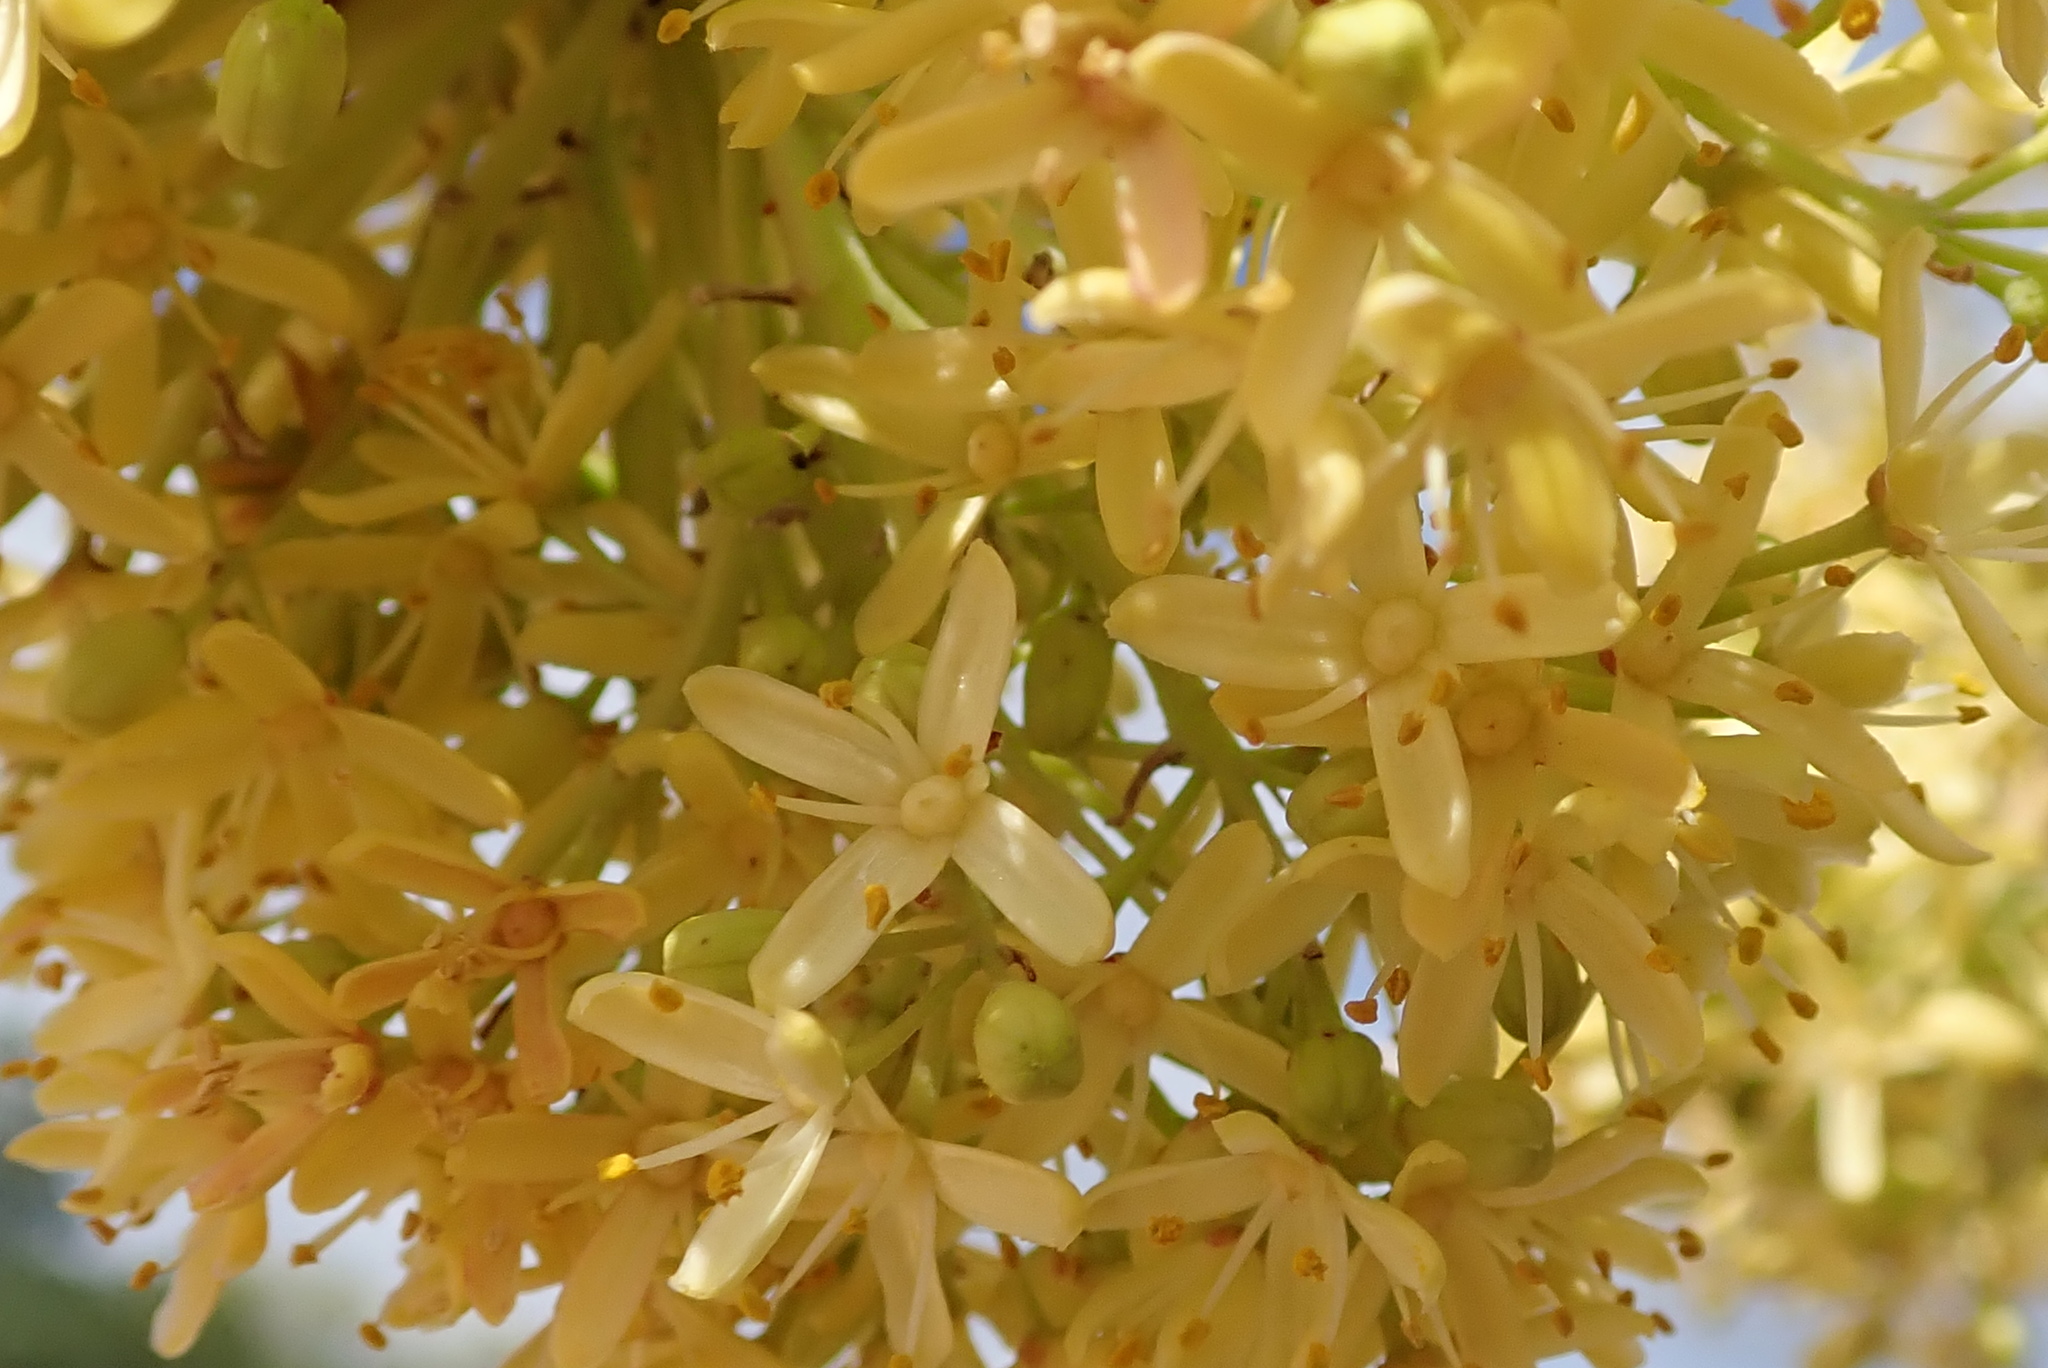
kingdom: Plantae
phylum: Tracheophyta
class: Magnoliopsida
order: Sapindales
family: Rutaceae
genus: Ptaeroxylon
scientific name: Ptaeroxylon obliquum
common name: Sneezewood
